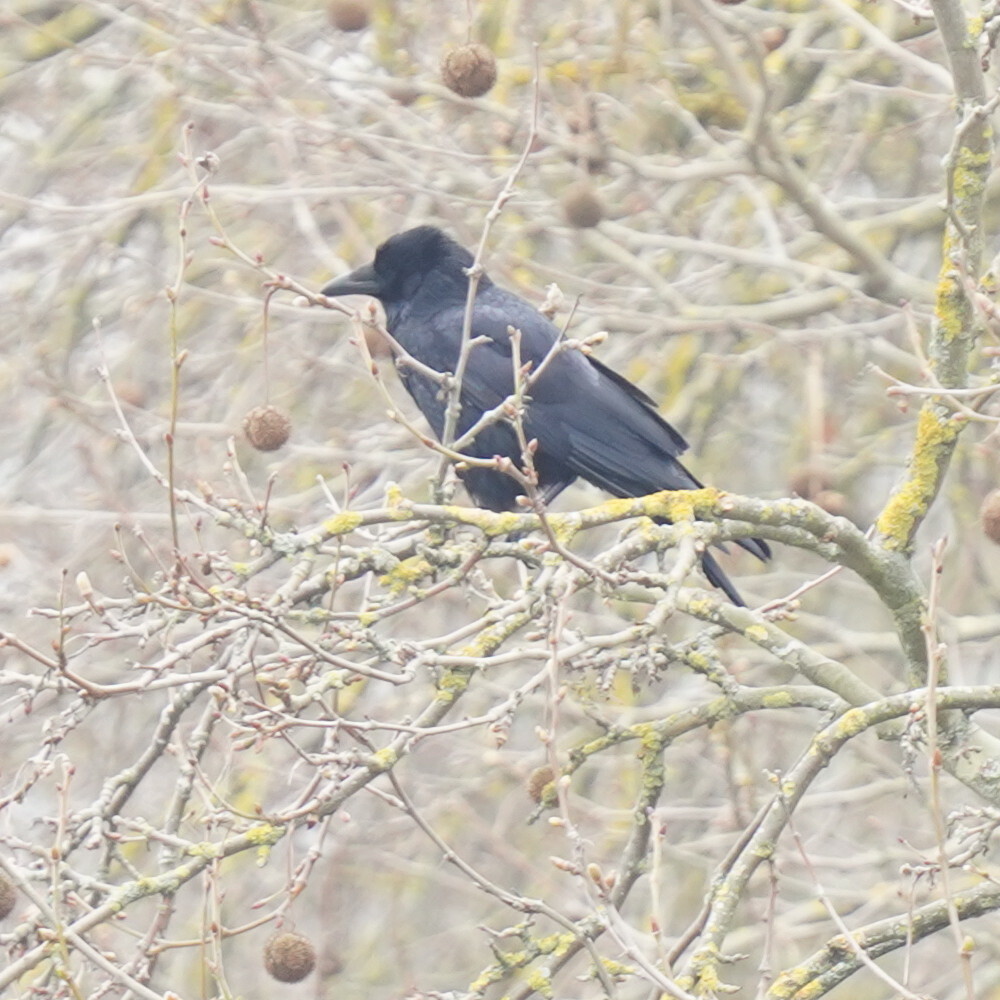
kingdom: Animalia
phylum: Chordata
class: Aves
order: Passeriformes
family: Corvidae
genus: Corvus
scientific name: Corvus corone
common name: Carrion crow
